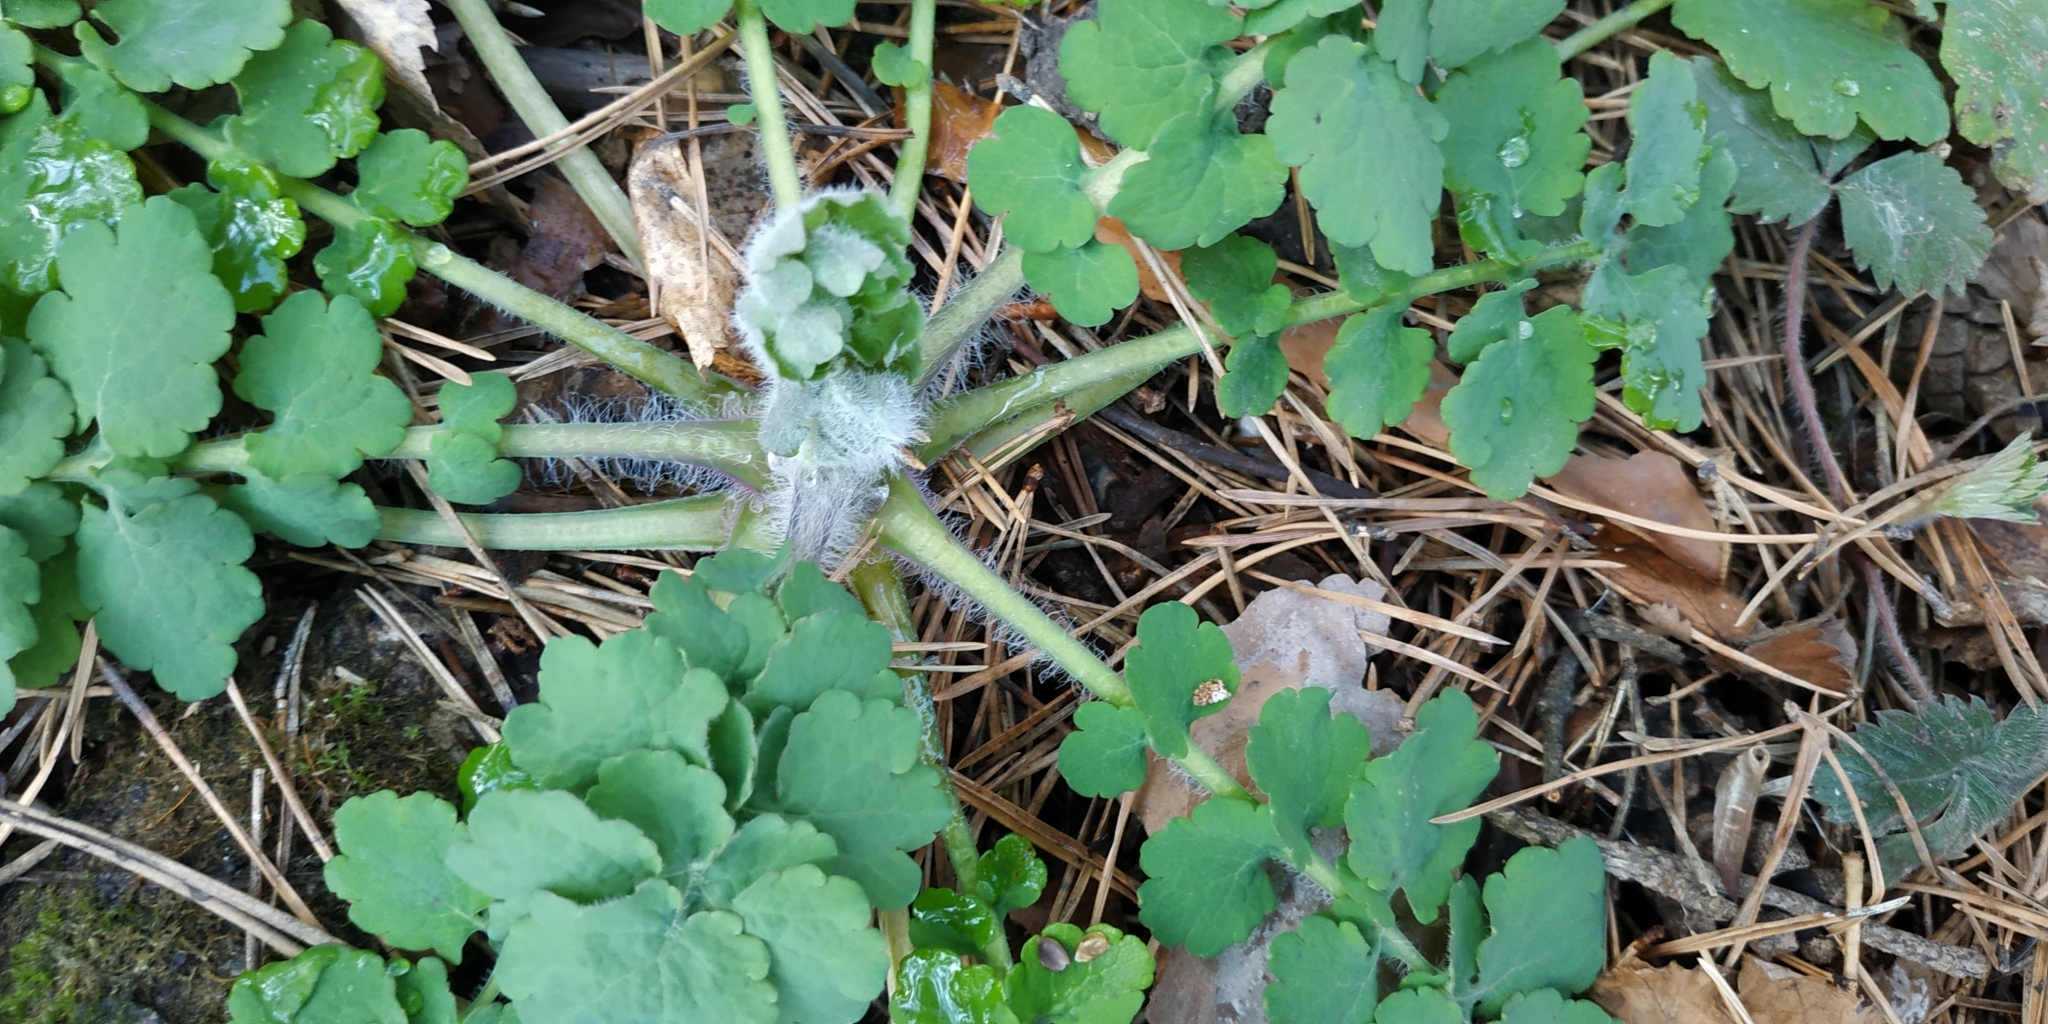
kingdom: Plantae
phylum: Tracheophyta
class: Magnoliopsida
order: Ranunculales
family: Papaveraceae
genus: Chelidonium
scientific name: Chelidonium majus
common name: Greater celandine
